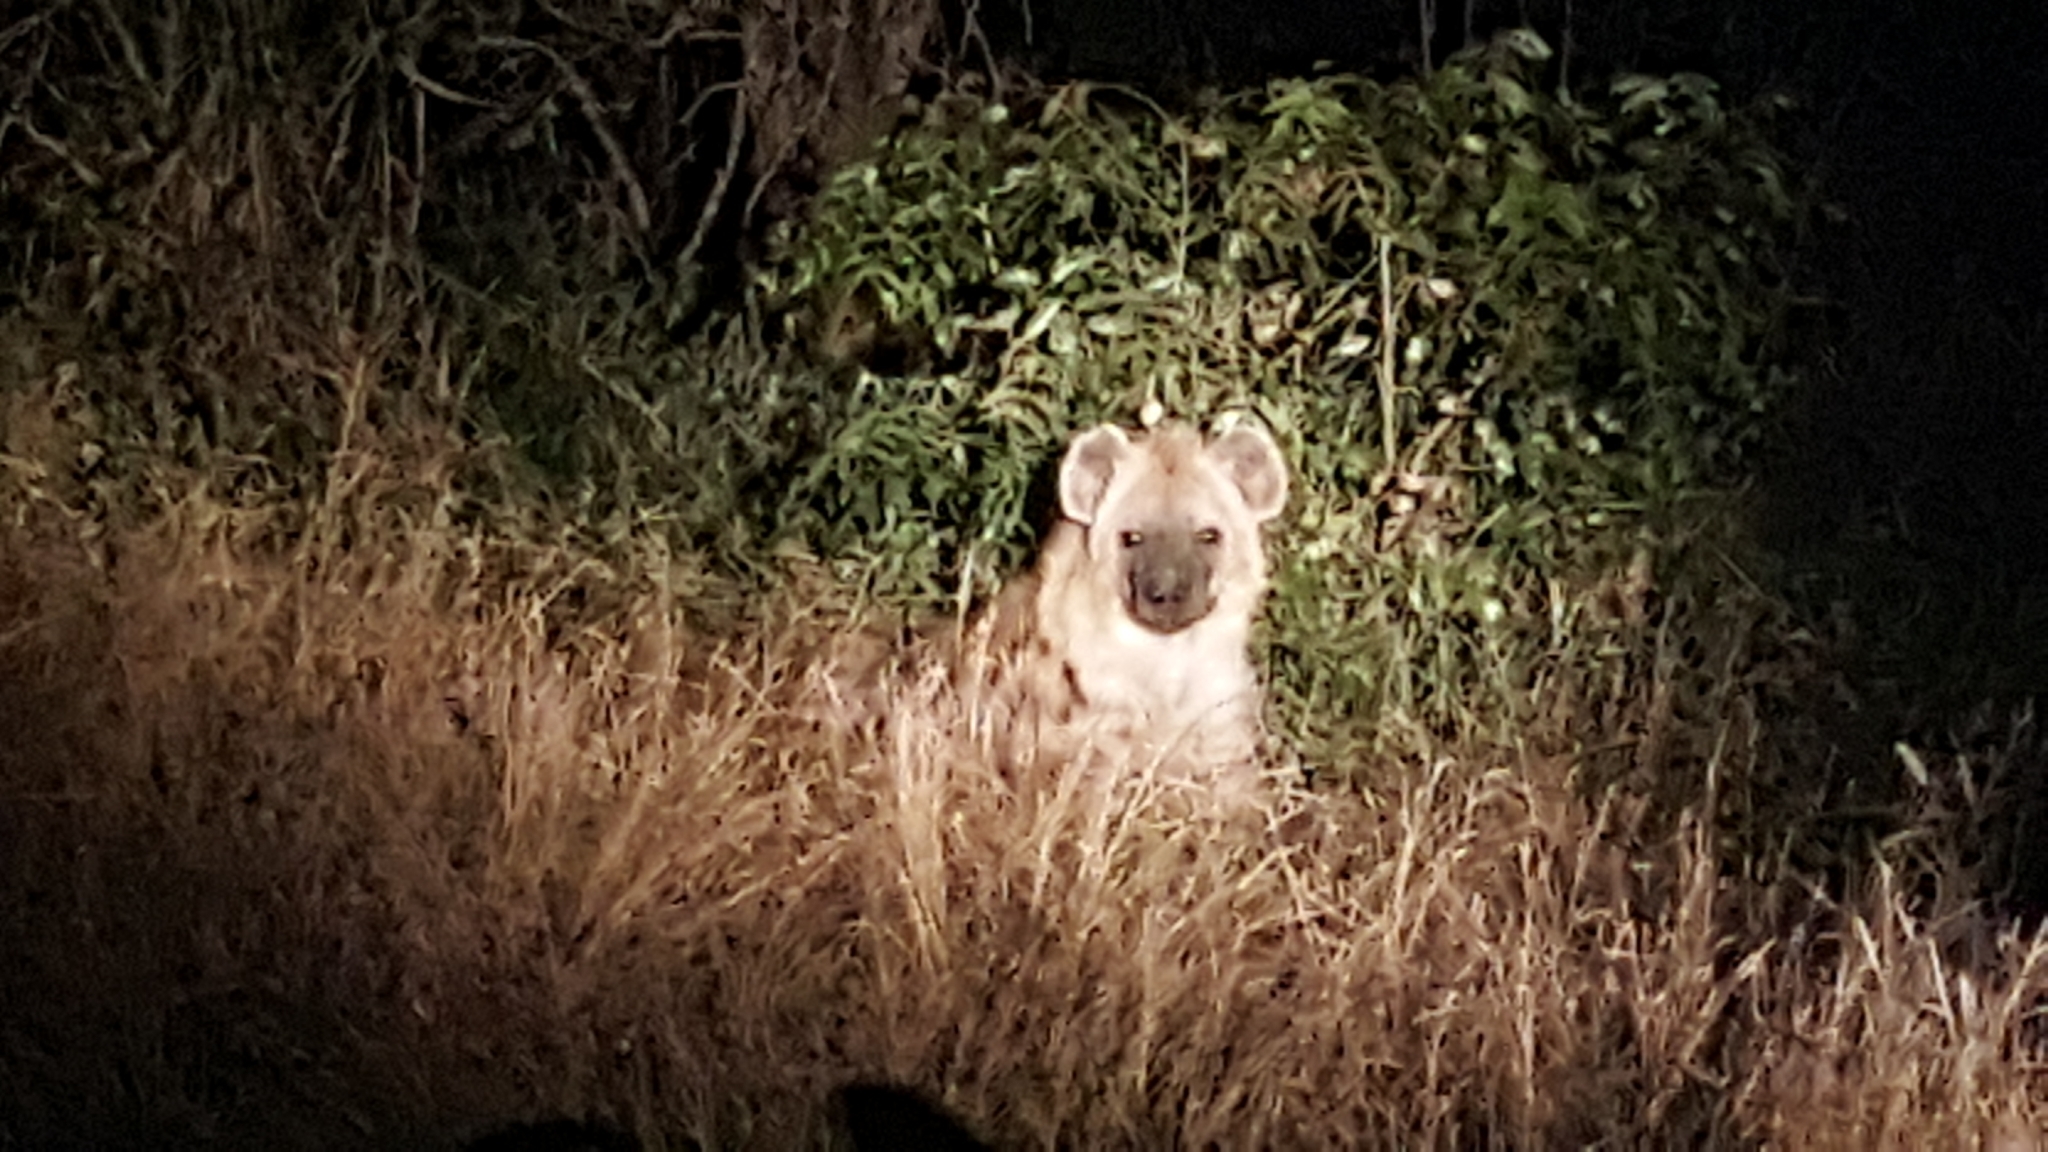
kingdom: Animalia
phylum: Chordata
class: Mammalia
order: Carnivora
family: Hyaenidae
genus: Crocuta
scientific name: Crocuta crocuta
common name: Spotted hyaena
